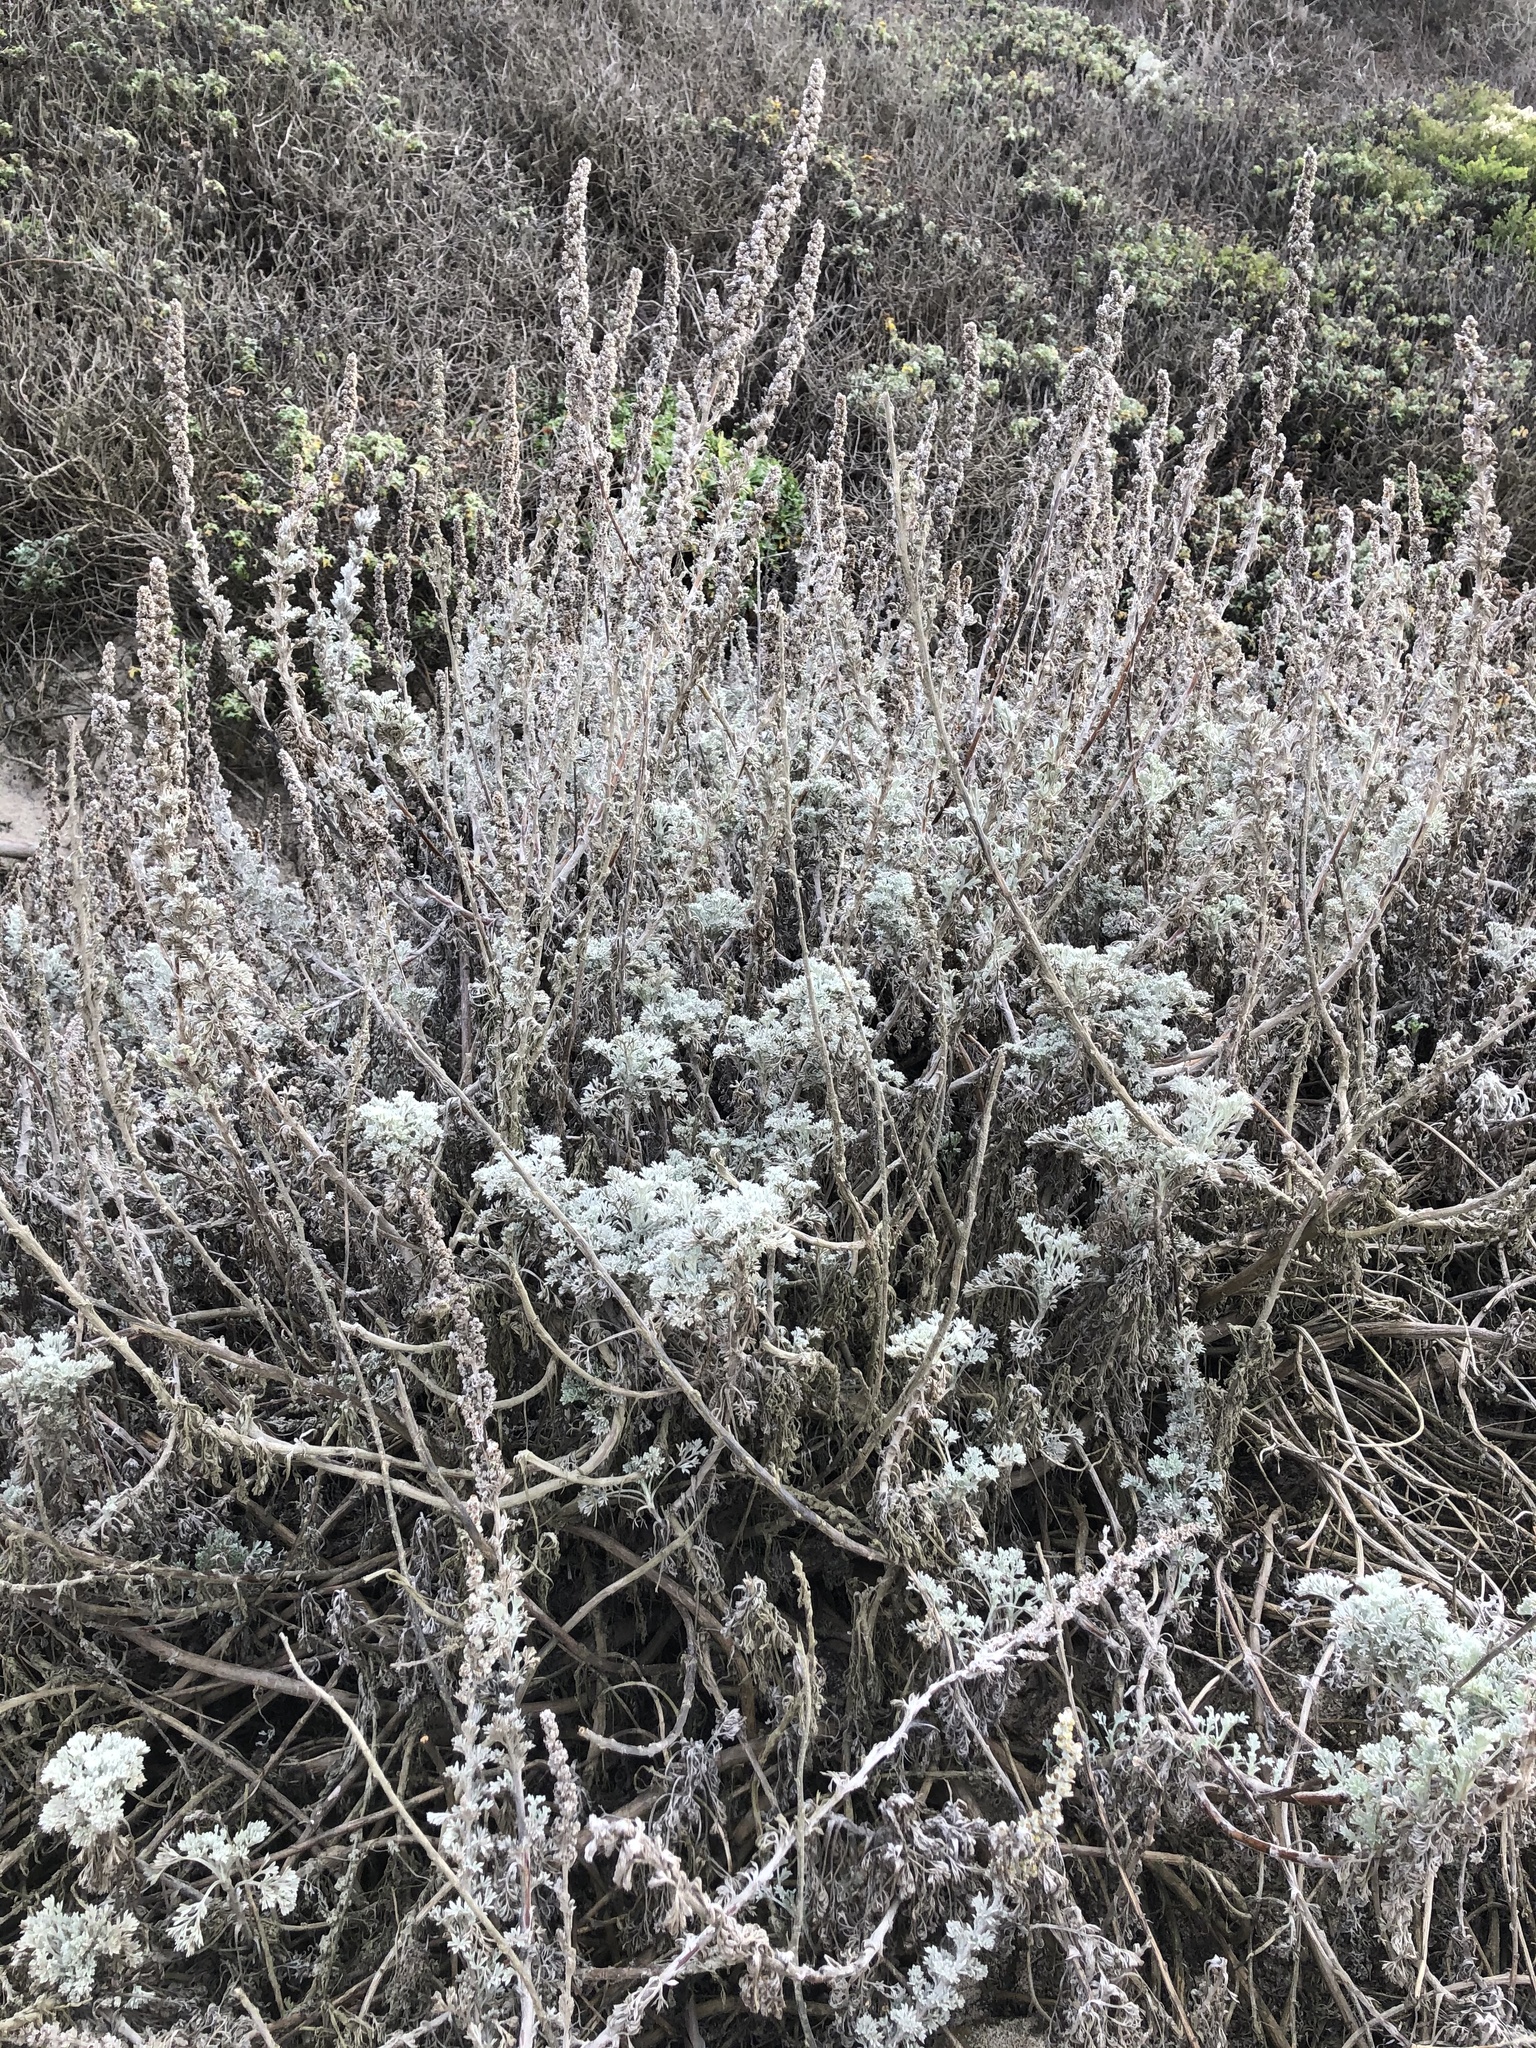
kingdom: Plantae
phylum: Tracheophyta
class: Magnoliopsida
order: Asterales
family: Asteraceae
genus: Artemisia
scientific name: Artemisia pycnocephala
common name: Coastal sagewort
